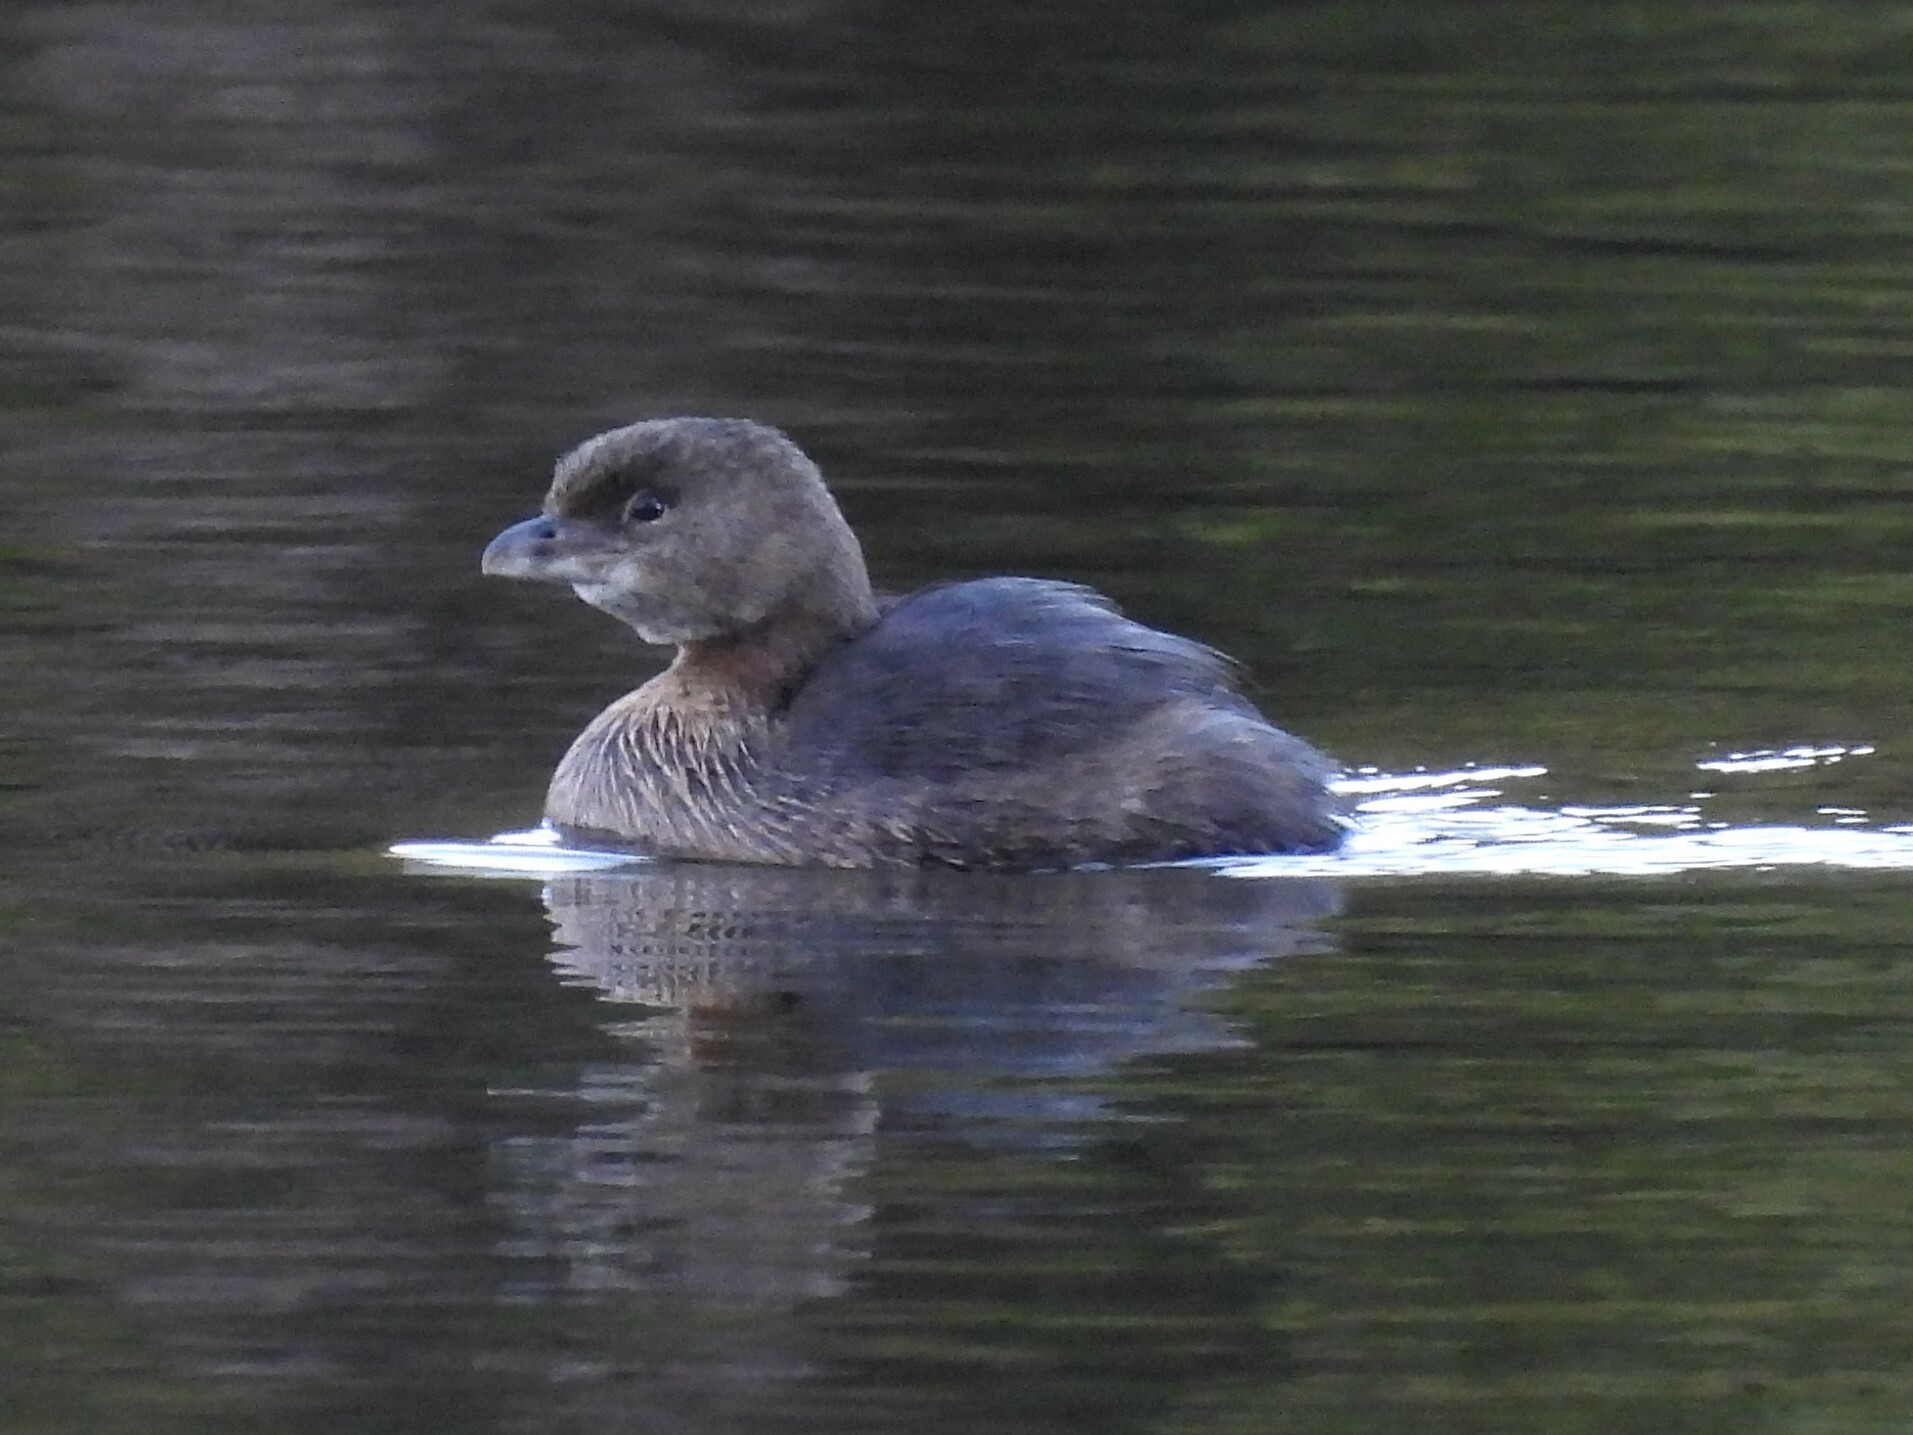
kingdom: Animalia
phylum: Chordata
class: Aves
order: Podicipediformes
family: Podicipedidae
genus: Podilymbus
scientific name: Podilymbus podiceps
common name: Pied-billed grebe
